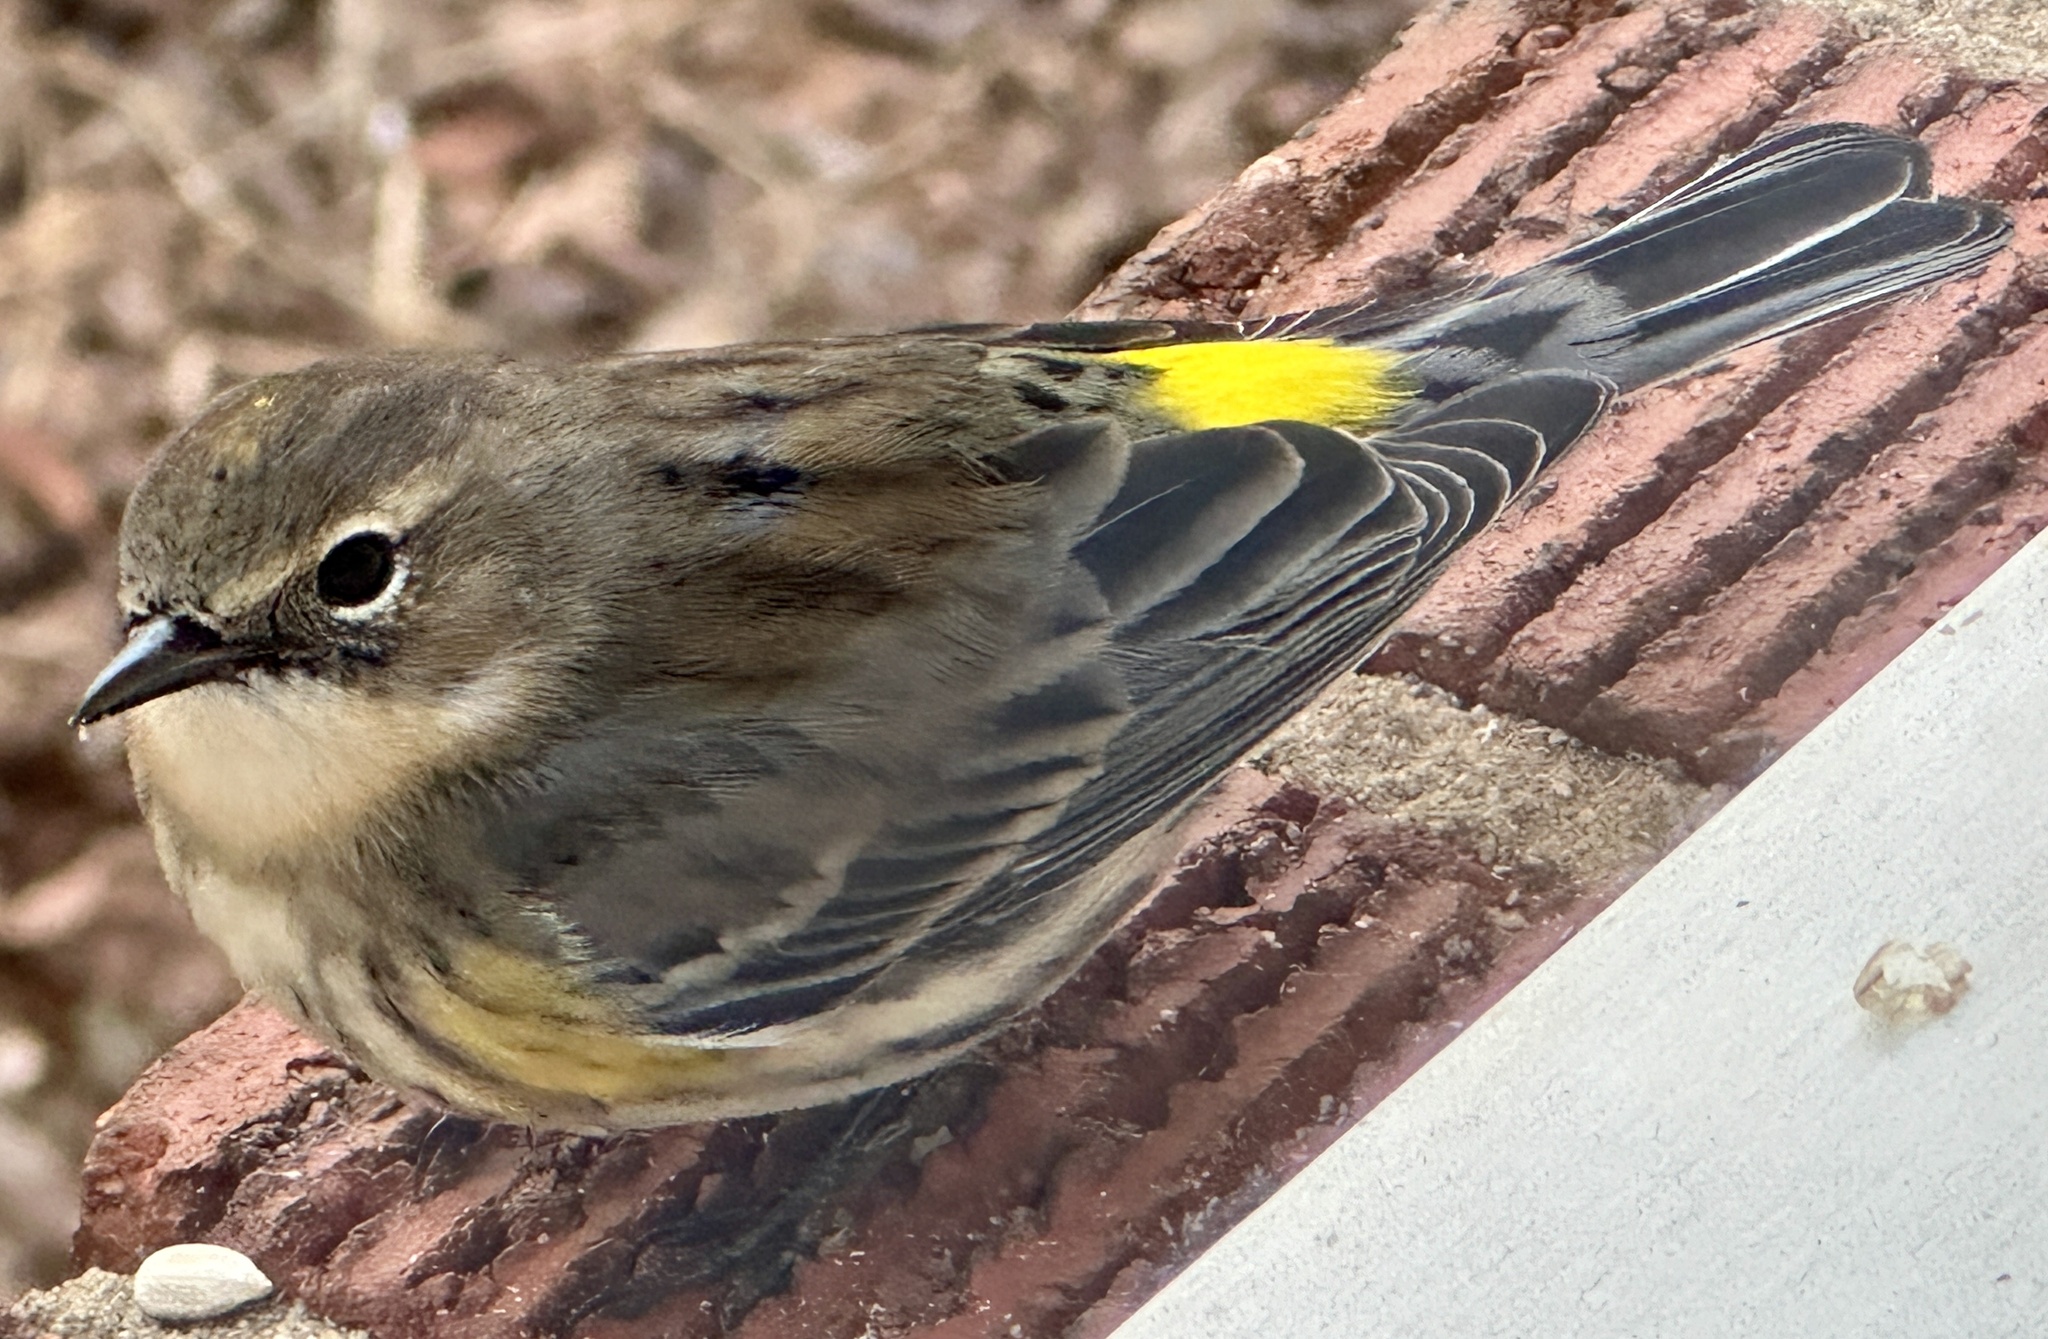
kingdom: Animalia
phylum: Chordata
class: Aves
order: Passeriformes
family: Parulidae
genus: Setophaga
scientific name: Setophaga coronata
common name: Myrtle warbler
